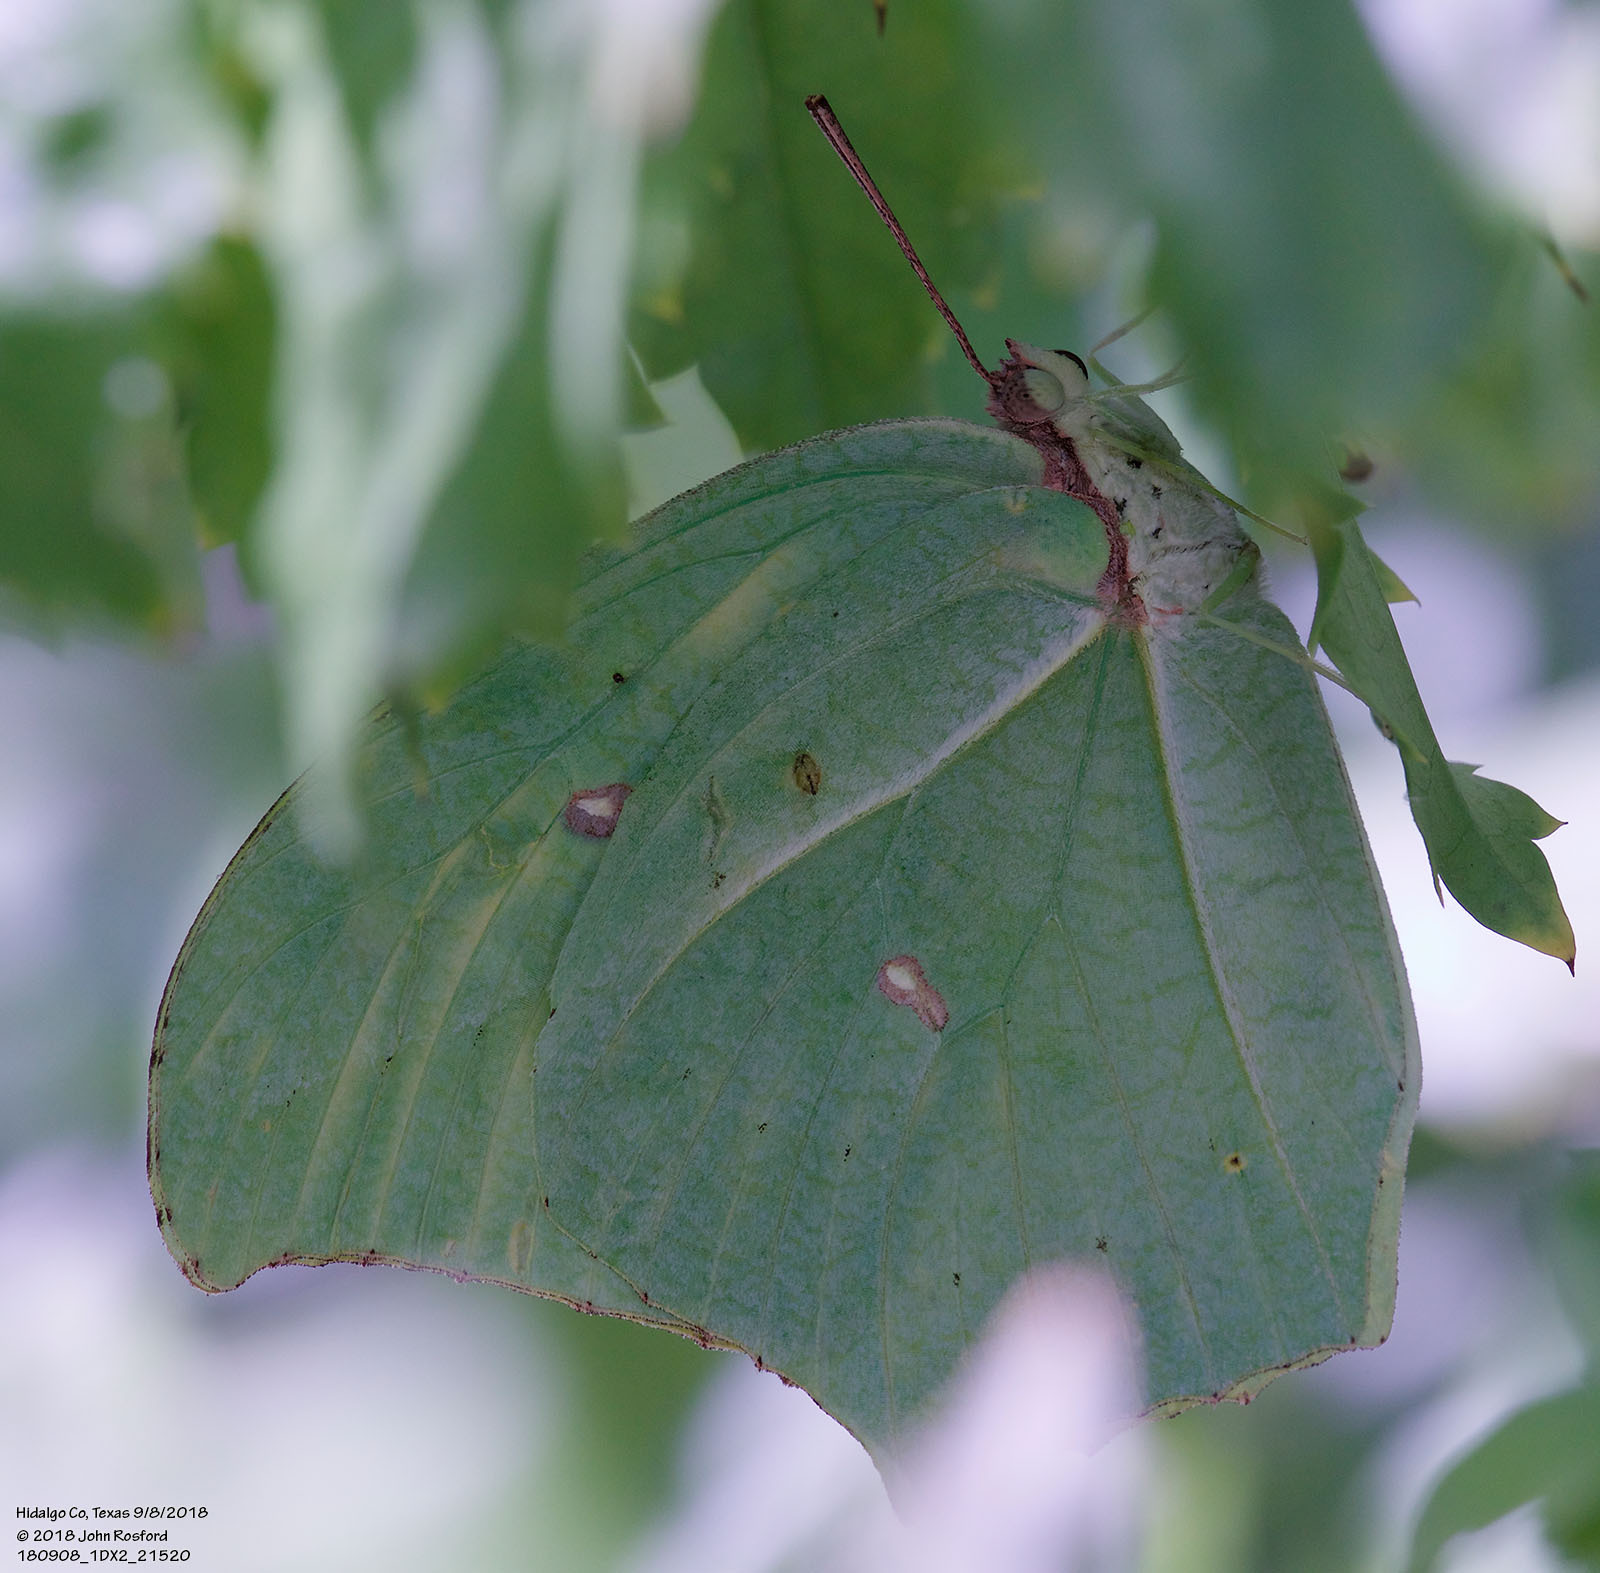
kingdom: Animalia
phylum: Arthropoda
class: Insecta
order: Lepidoptera
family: Pieridae
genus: Anteos
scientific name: Anteos maerula
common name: Angled sulphur
